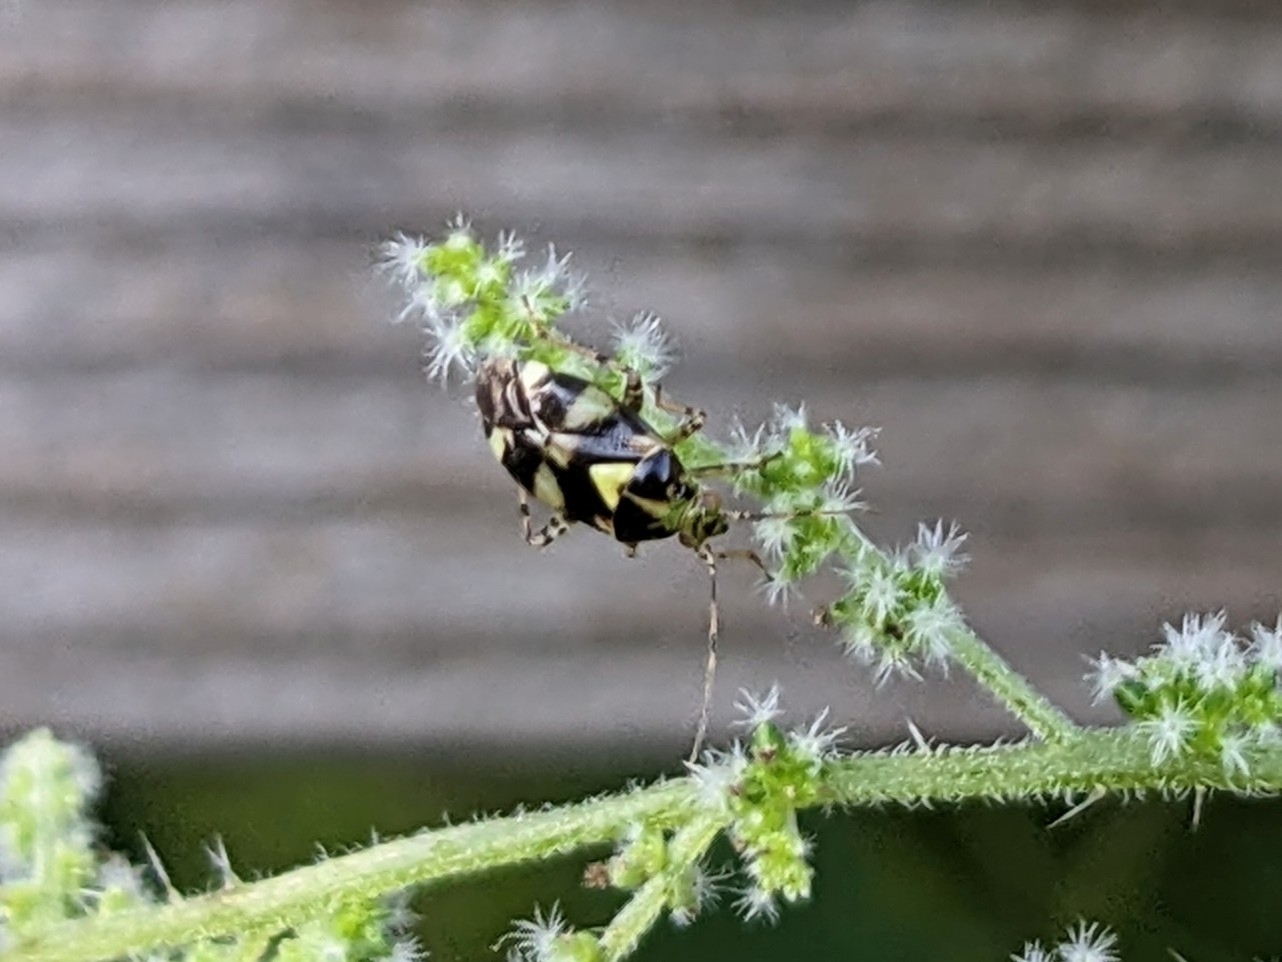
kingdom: Animalia
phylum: Arthropoda
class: Insecta
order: Hemiptera
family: Miridae
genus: Liocoris
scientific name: Liocoris tripustulatus
